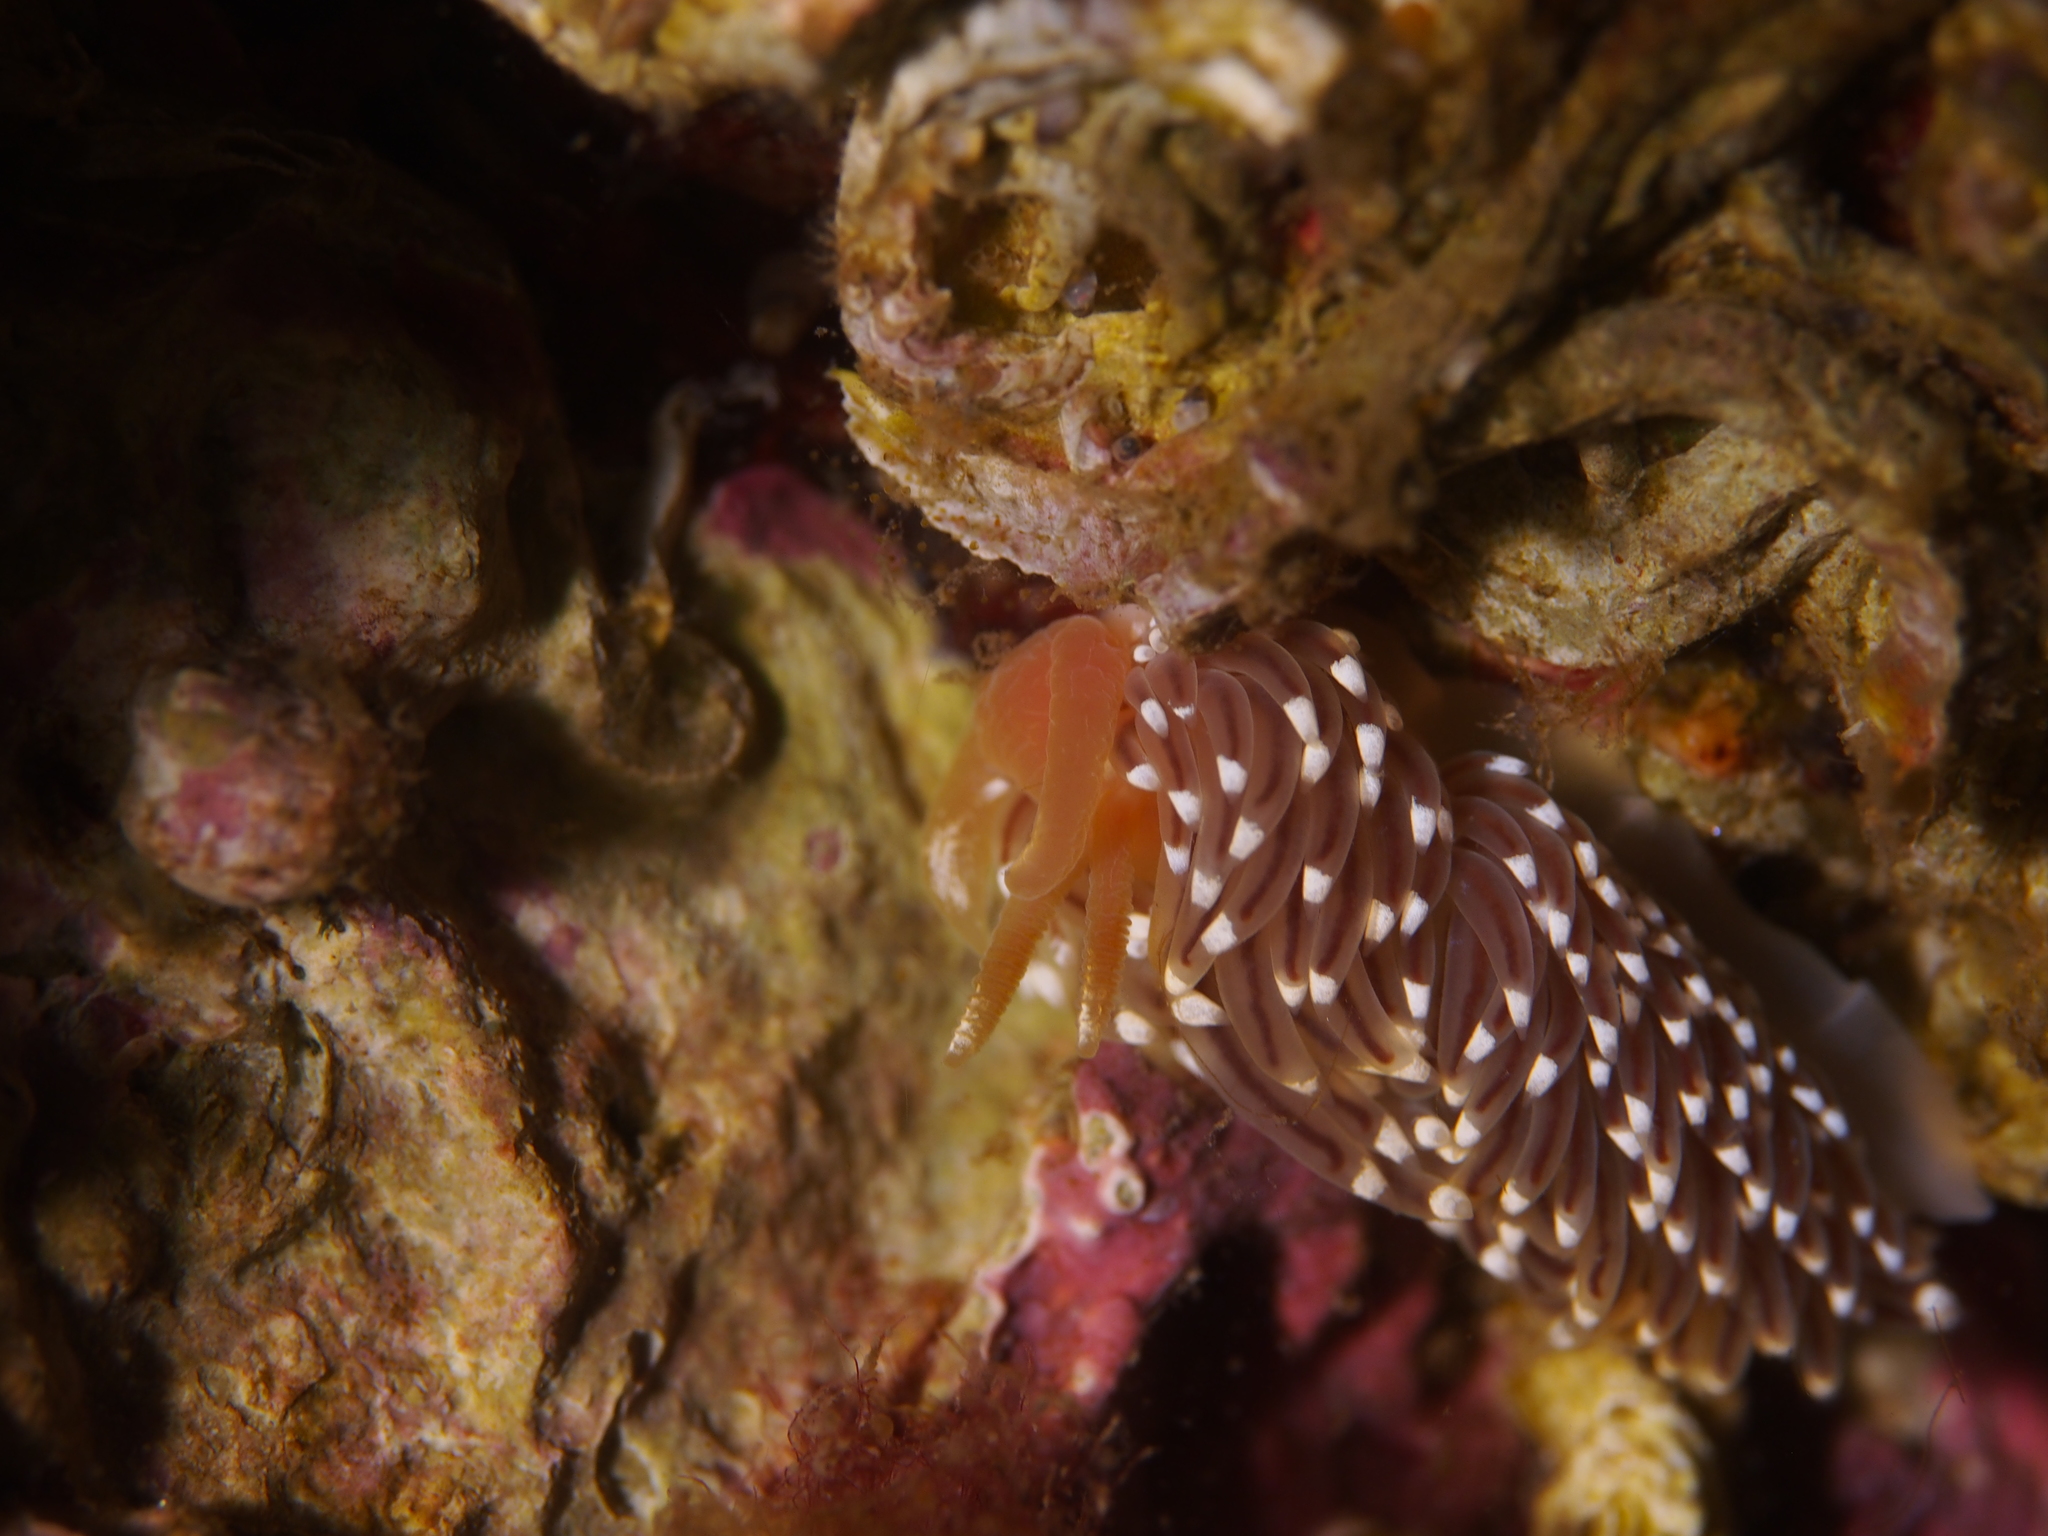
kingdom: Animalia
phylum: Mollusca
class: Gastropoda
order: Nudibranchia
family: Facelinidae
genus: Facelina
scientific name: Facelina bostoniensis
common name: Boston facelina
